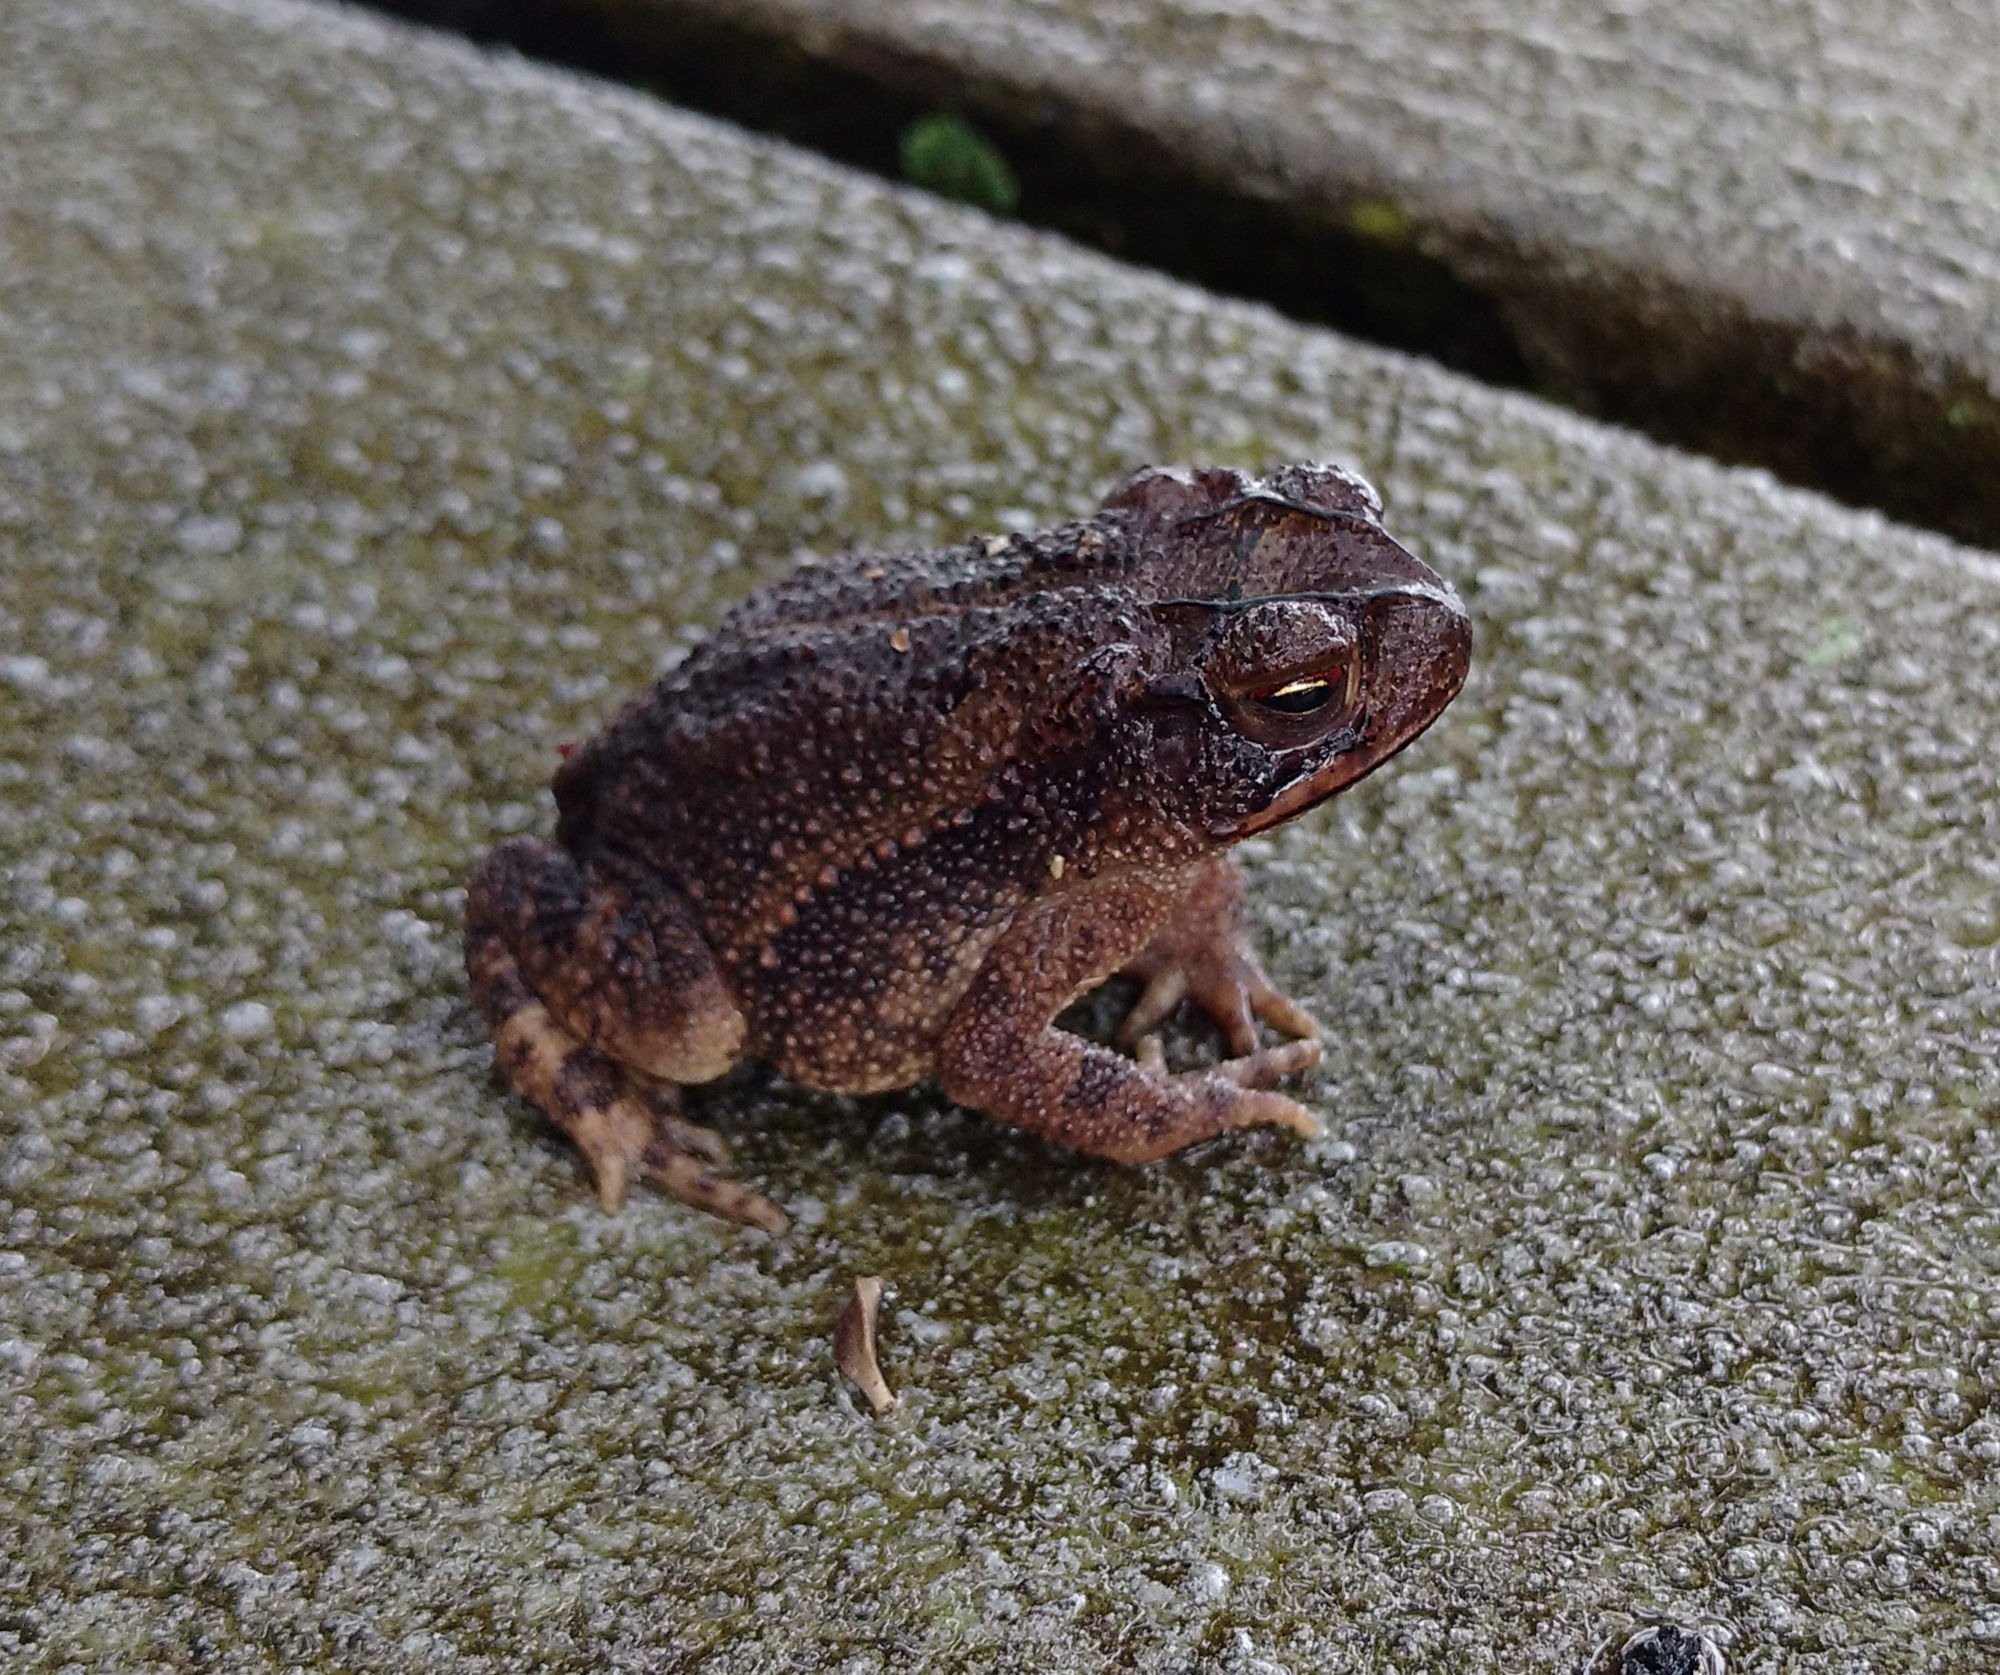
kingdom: Animalia
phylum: Chordata
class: Amphibia
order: Anura
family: Bufonidae
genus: Incilius
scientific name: Incilius nebulifer
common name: Gulf coast toad
